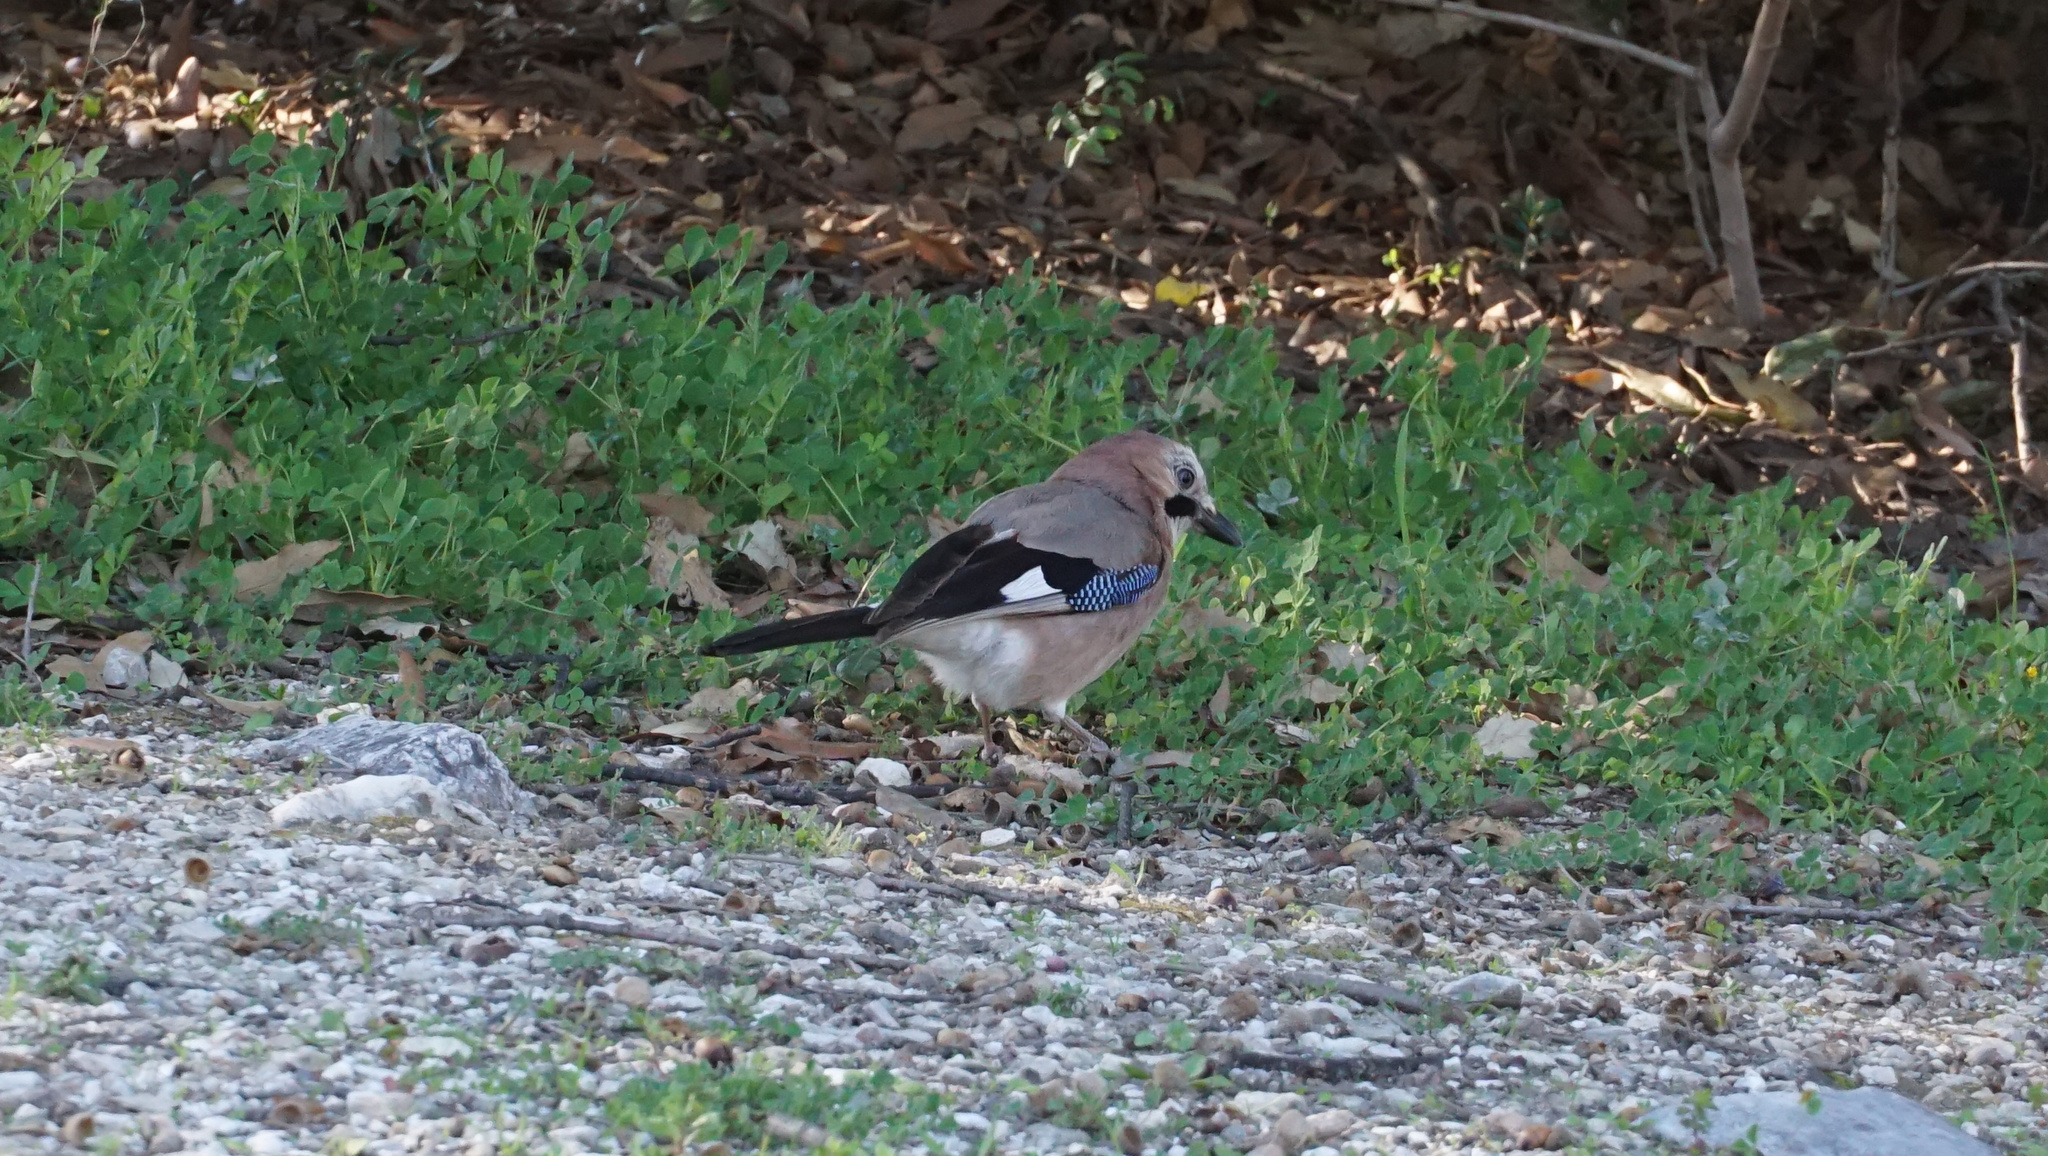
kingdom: Animalia
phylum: Chordata
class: Aves
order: Passeriformes
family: Corvidae
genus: Garrulus
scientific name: Garrulus glandarius
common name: Eurasian jay
